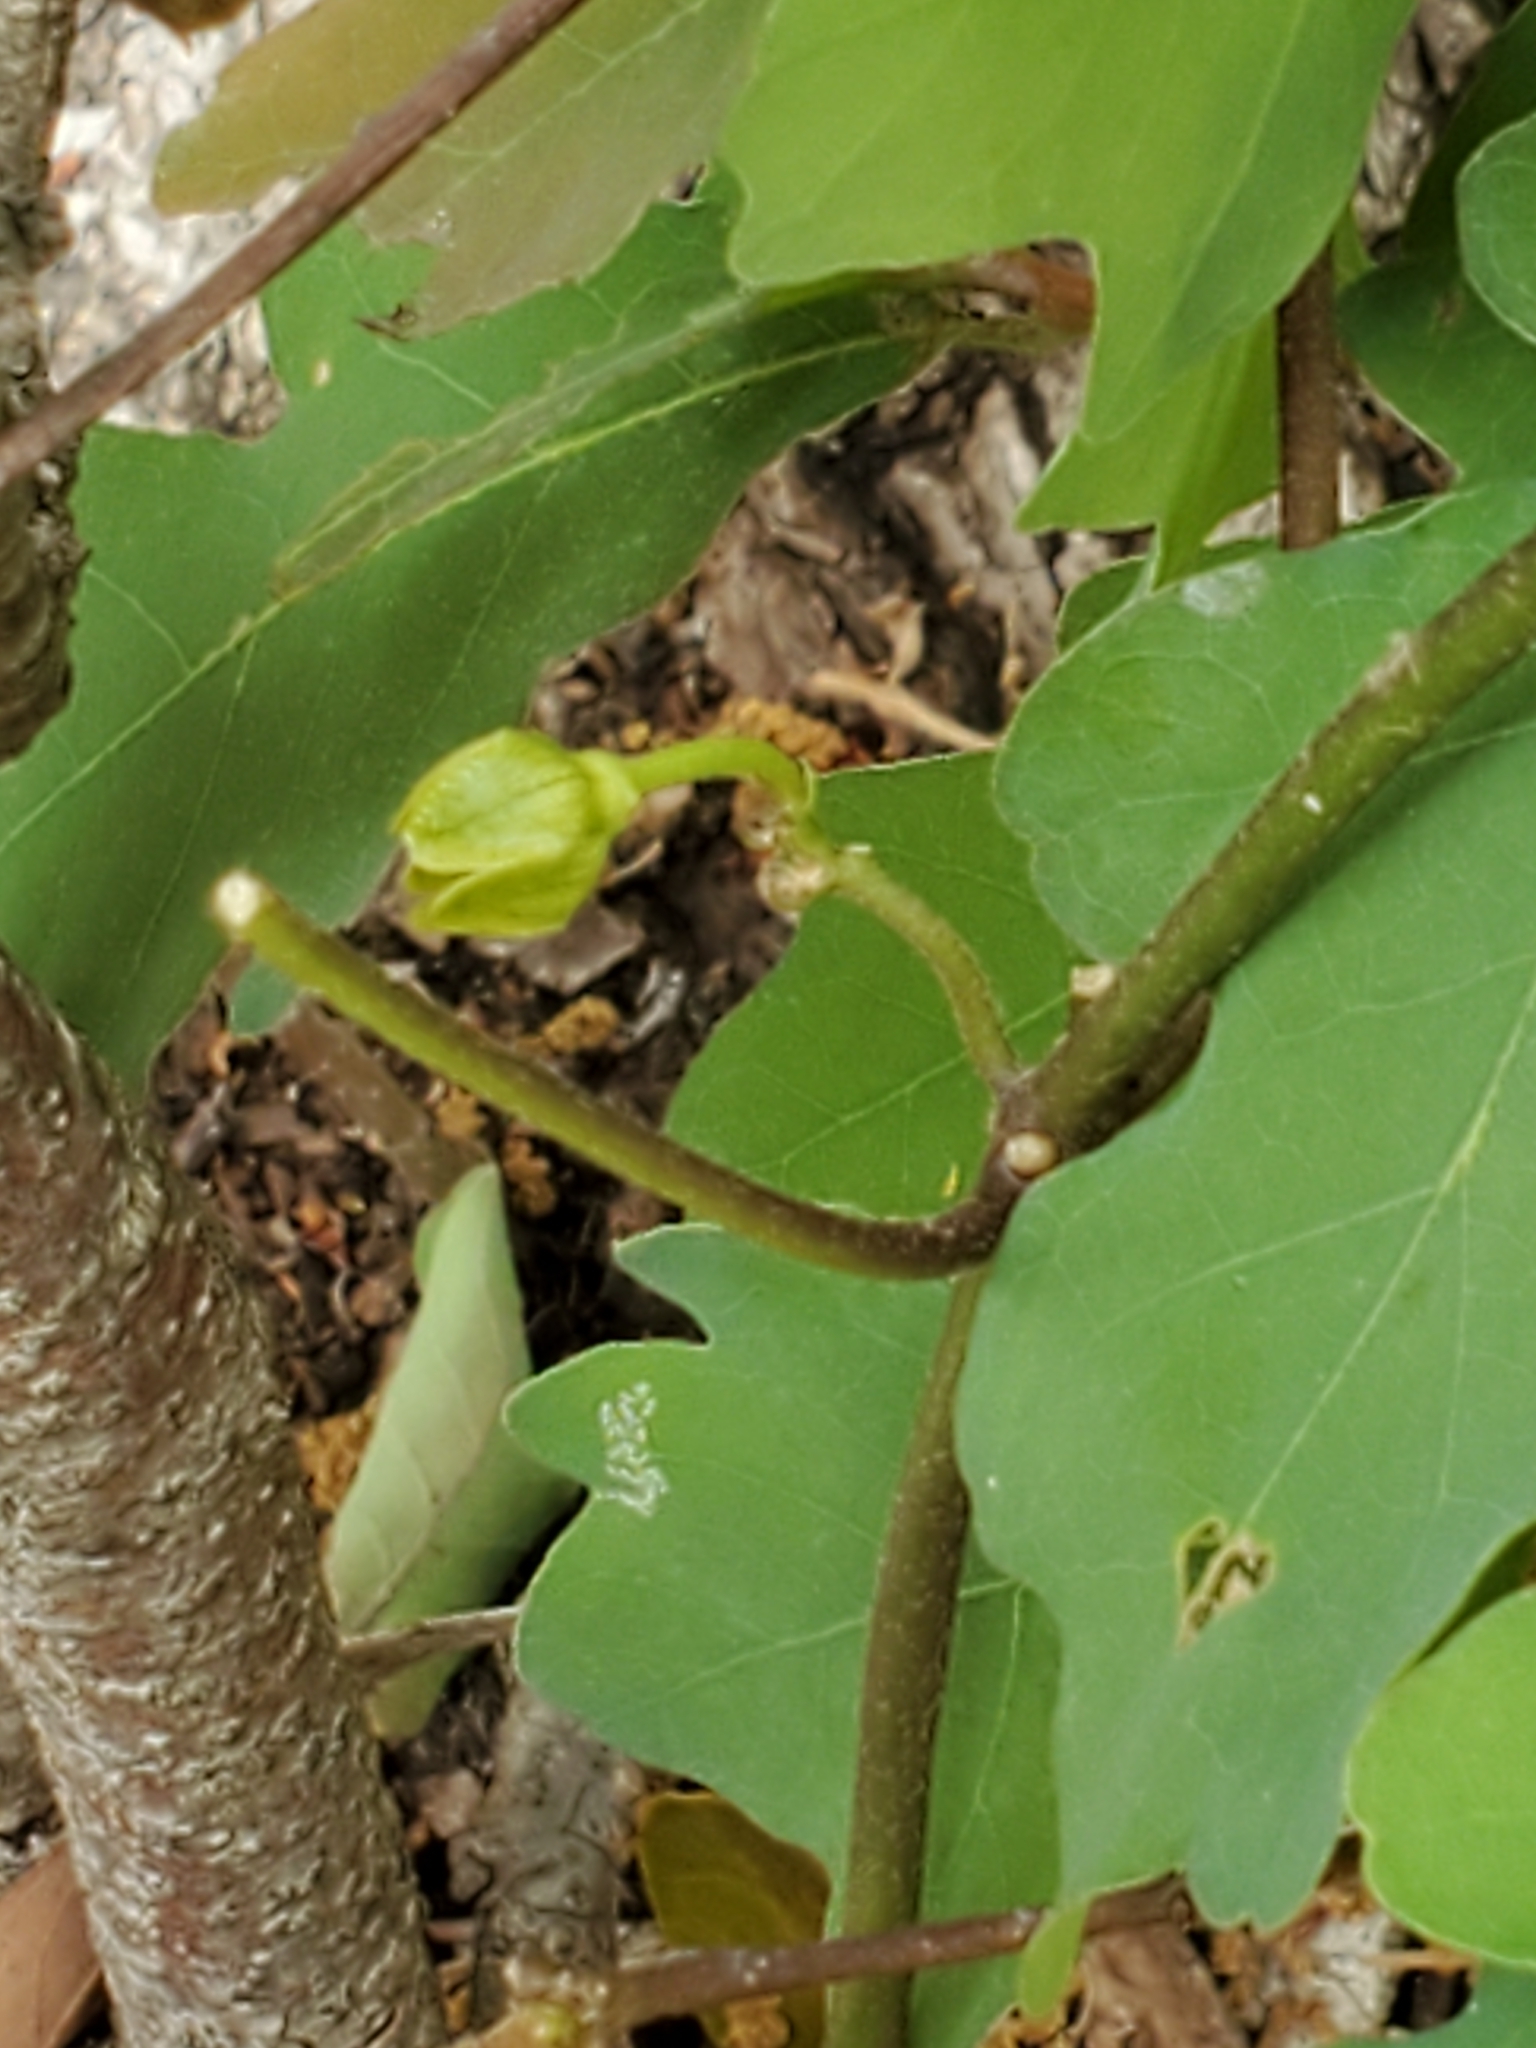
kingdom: Plantae
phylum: Tracheophyta
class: Magnoliopsida
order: Gentianales
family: Apocynaceae
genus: Matelea
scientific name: Matelea edwardsensis
